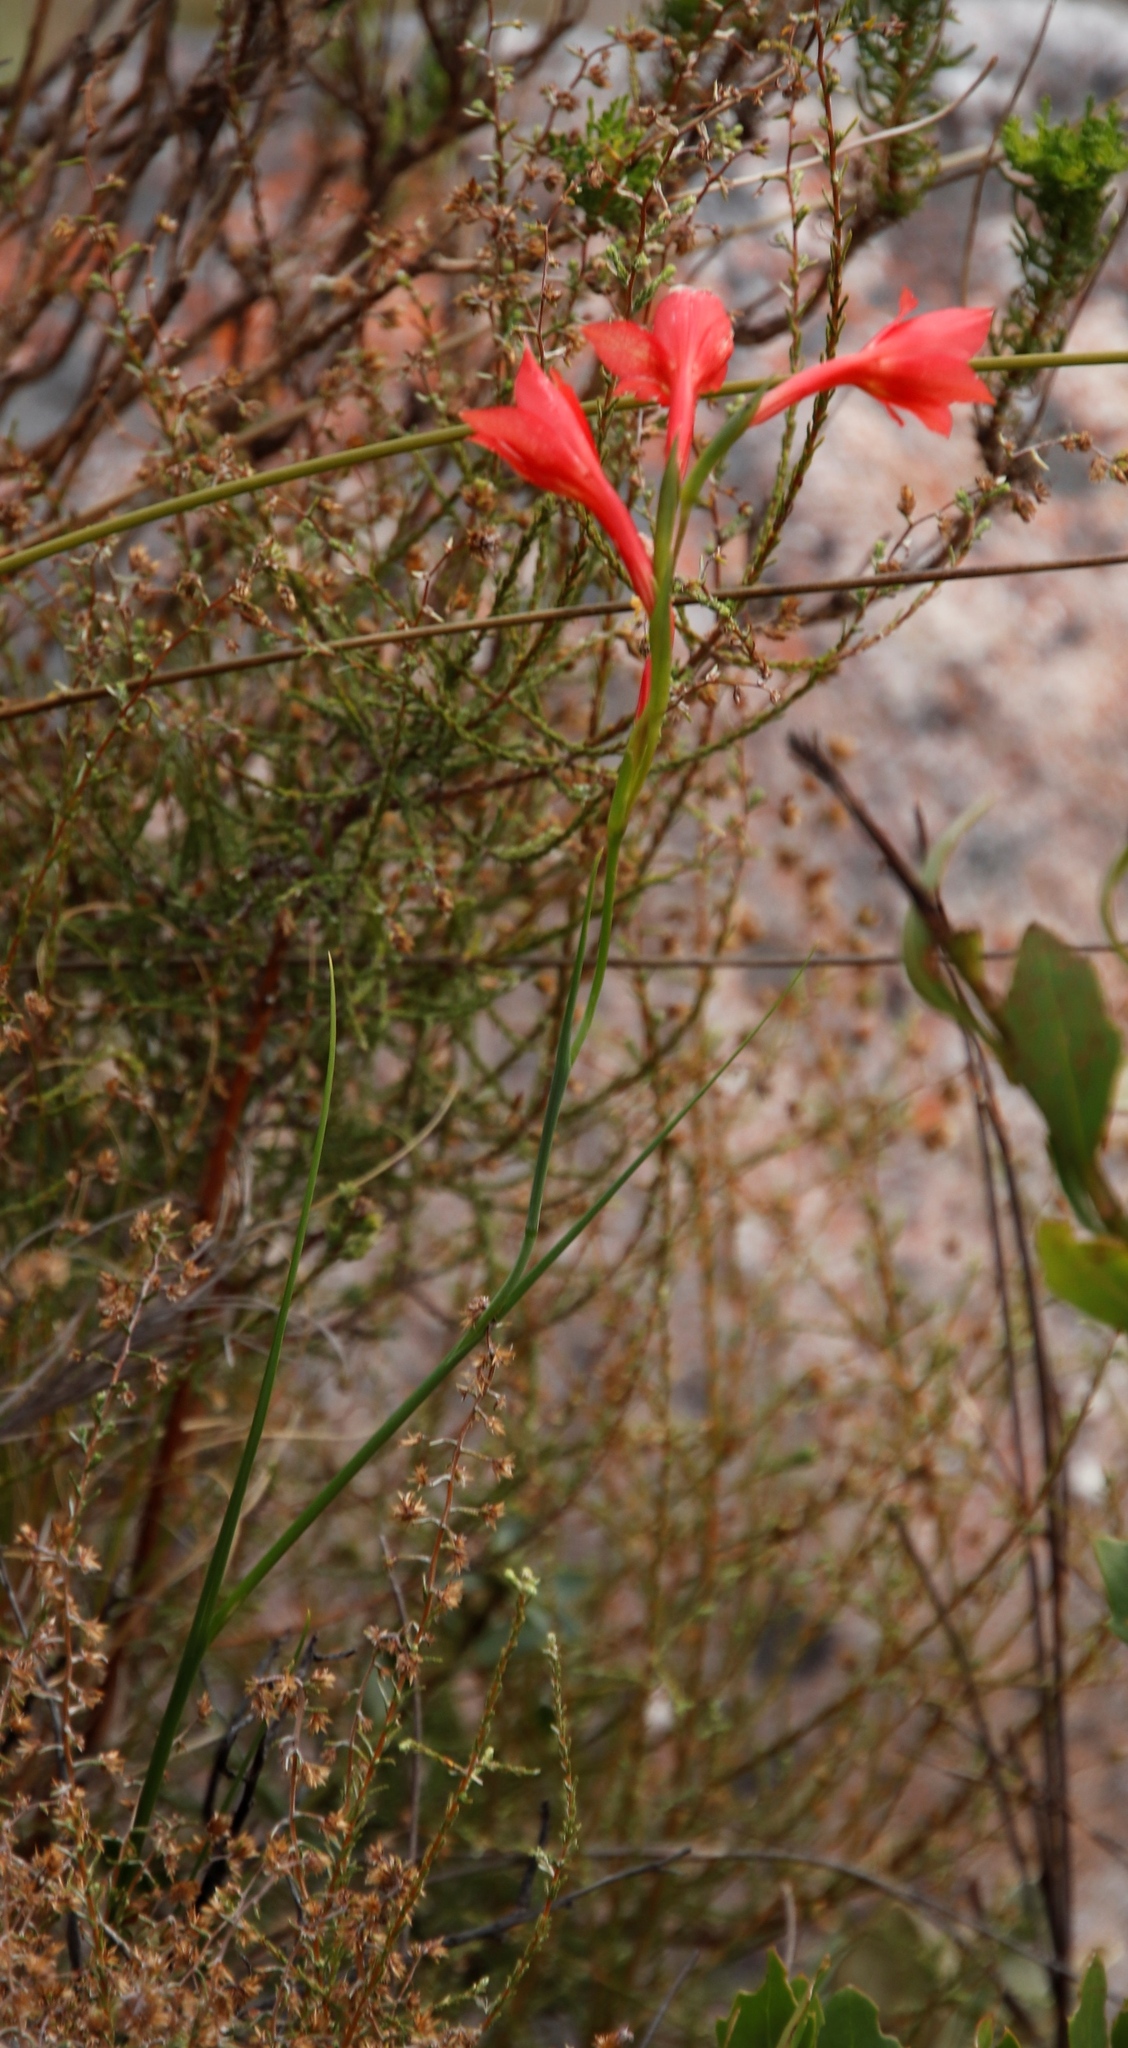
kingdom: Plantae
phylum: Tracheophyta
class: Liliopsida
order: Asparagales
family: Iridaceae
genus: Gladiolus
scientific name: Gladiolus priorii
